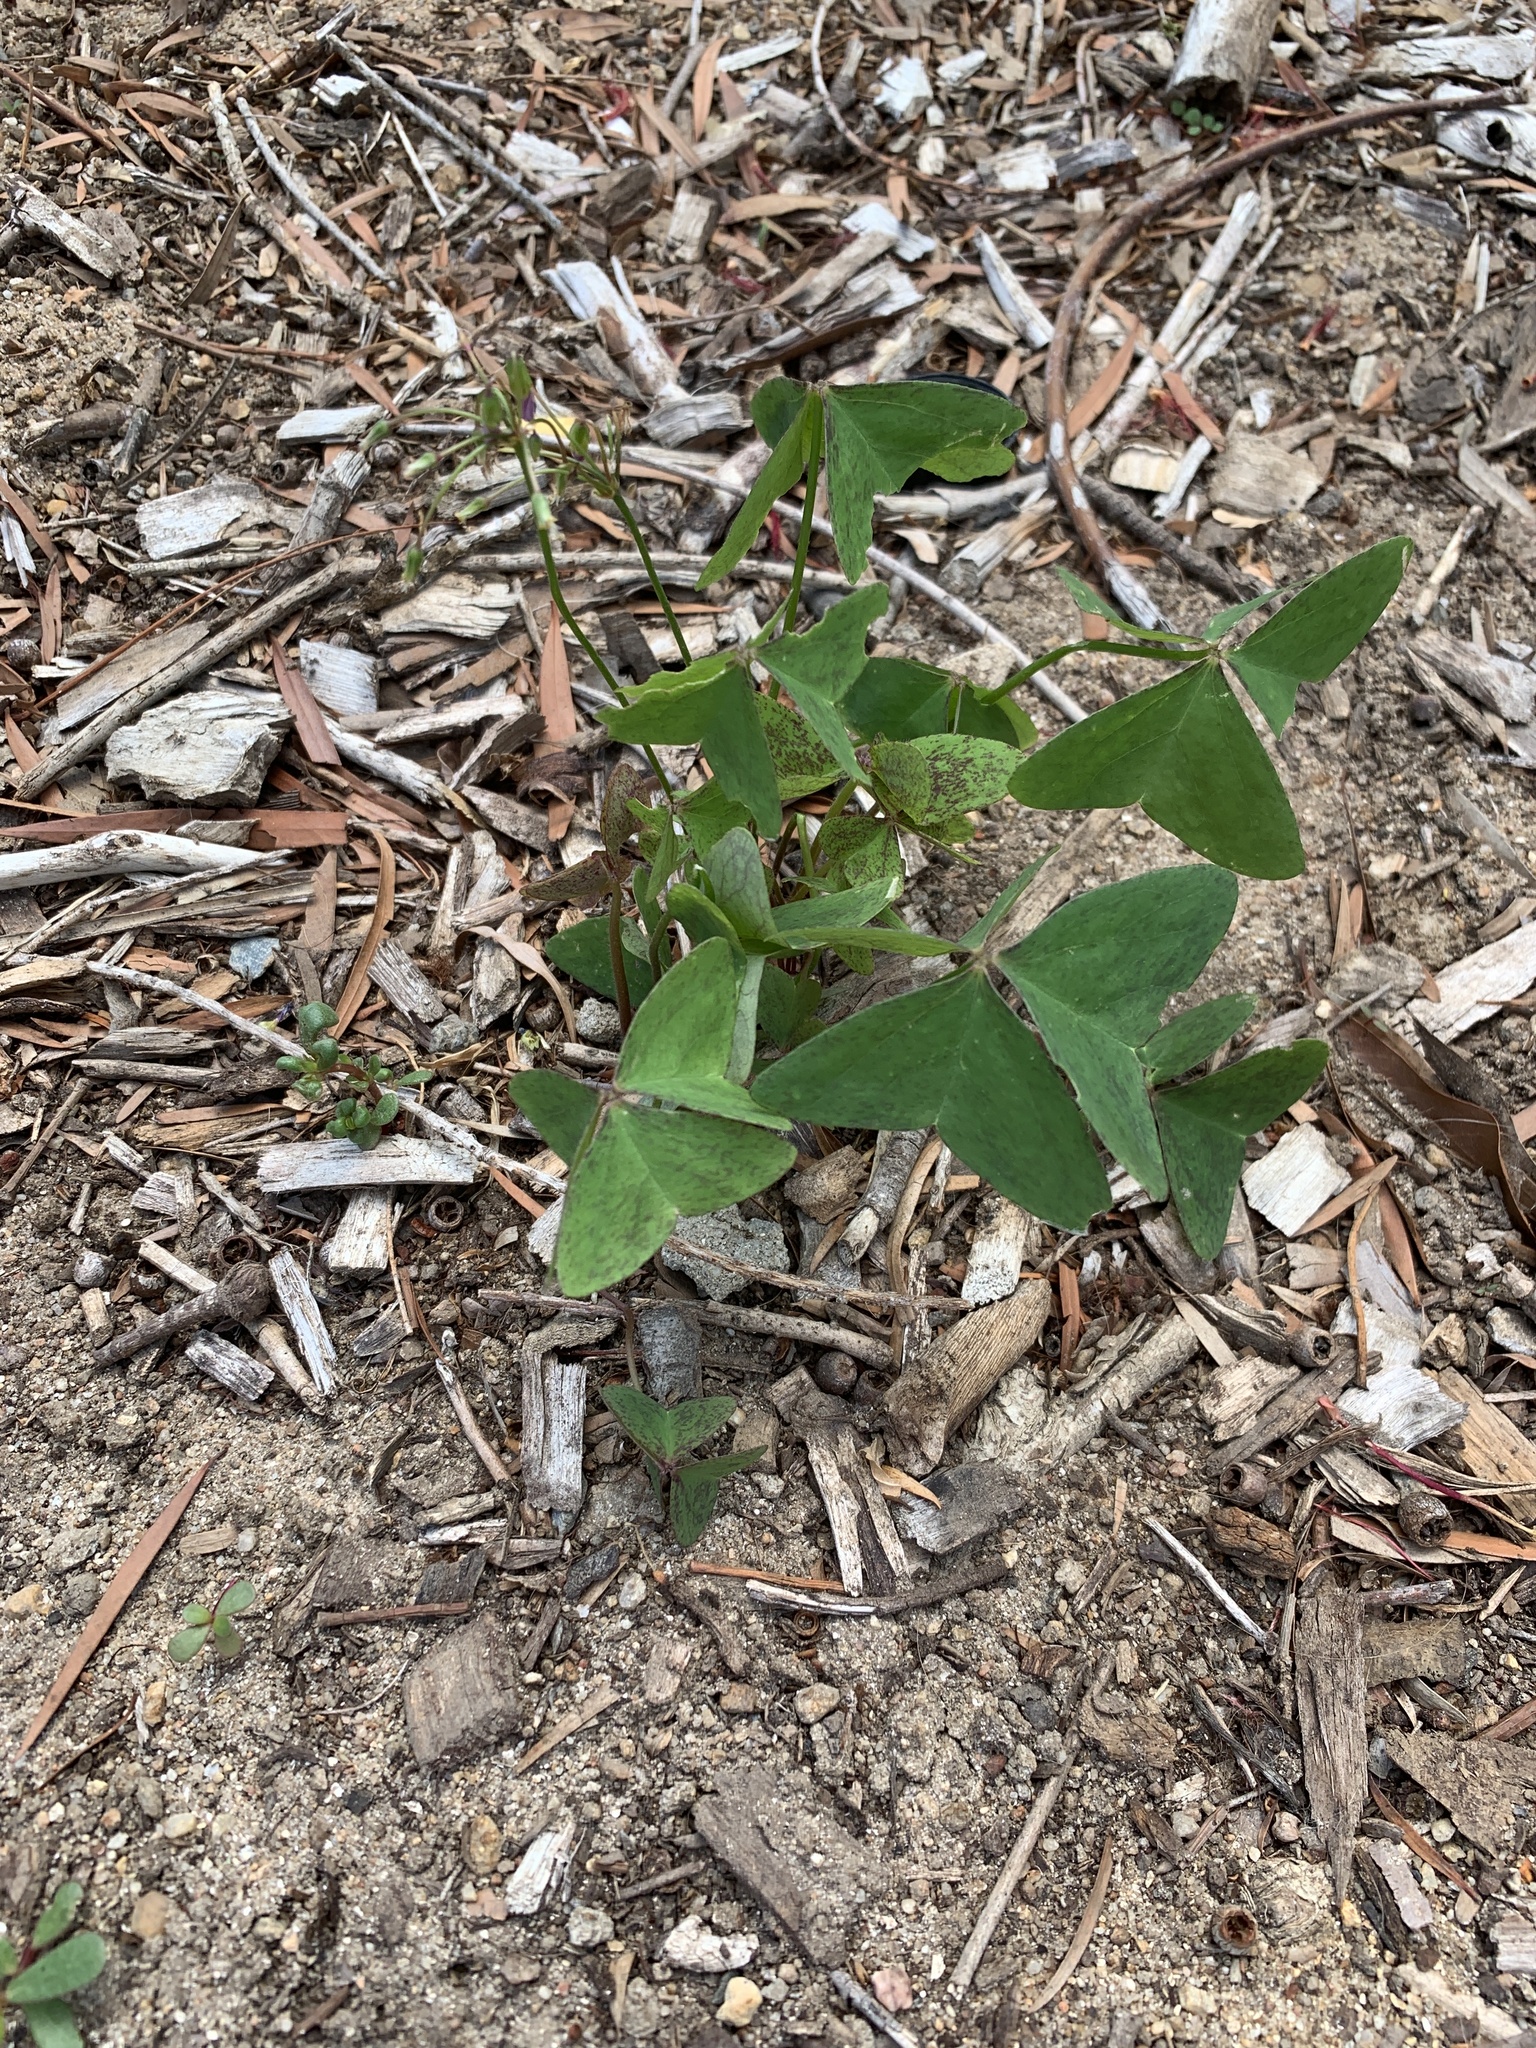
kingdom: Plantae
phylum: Tracheophyta
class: Magnoliopsida
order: Oxalidales
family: Oxalidaceae
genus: Oxalis
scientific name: Oxalis latifolia
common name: Garden pink-sorrel
